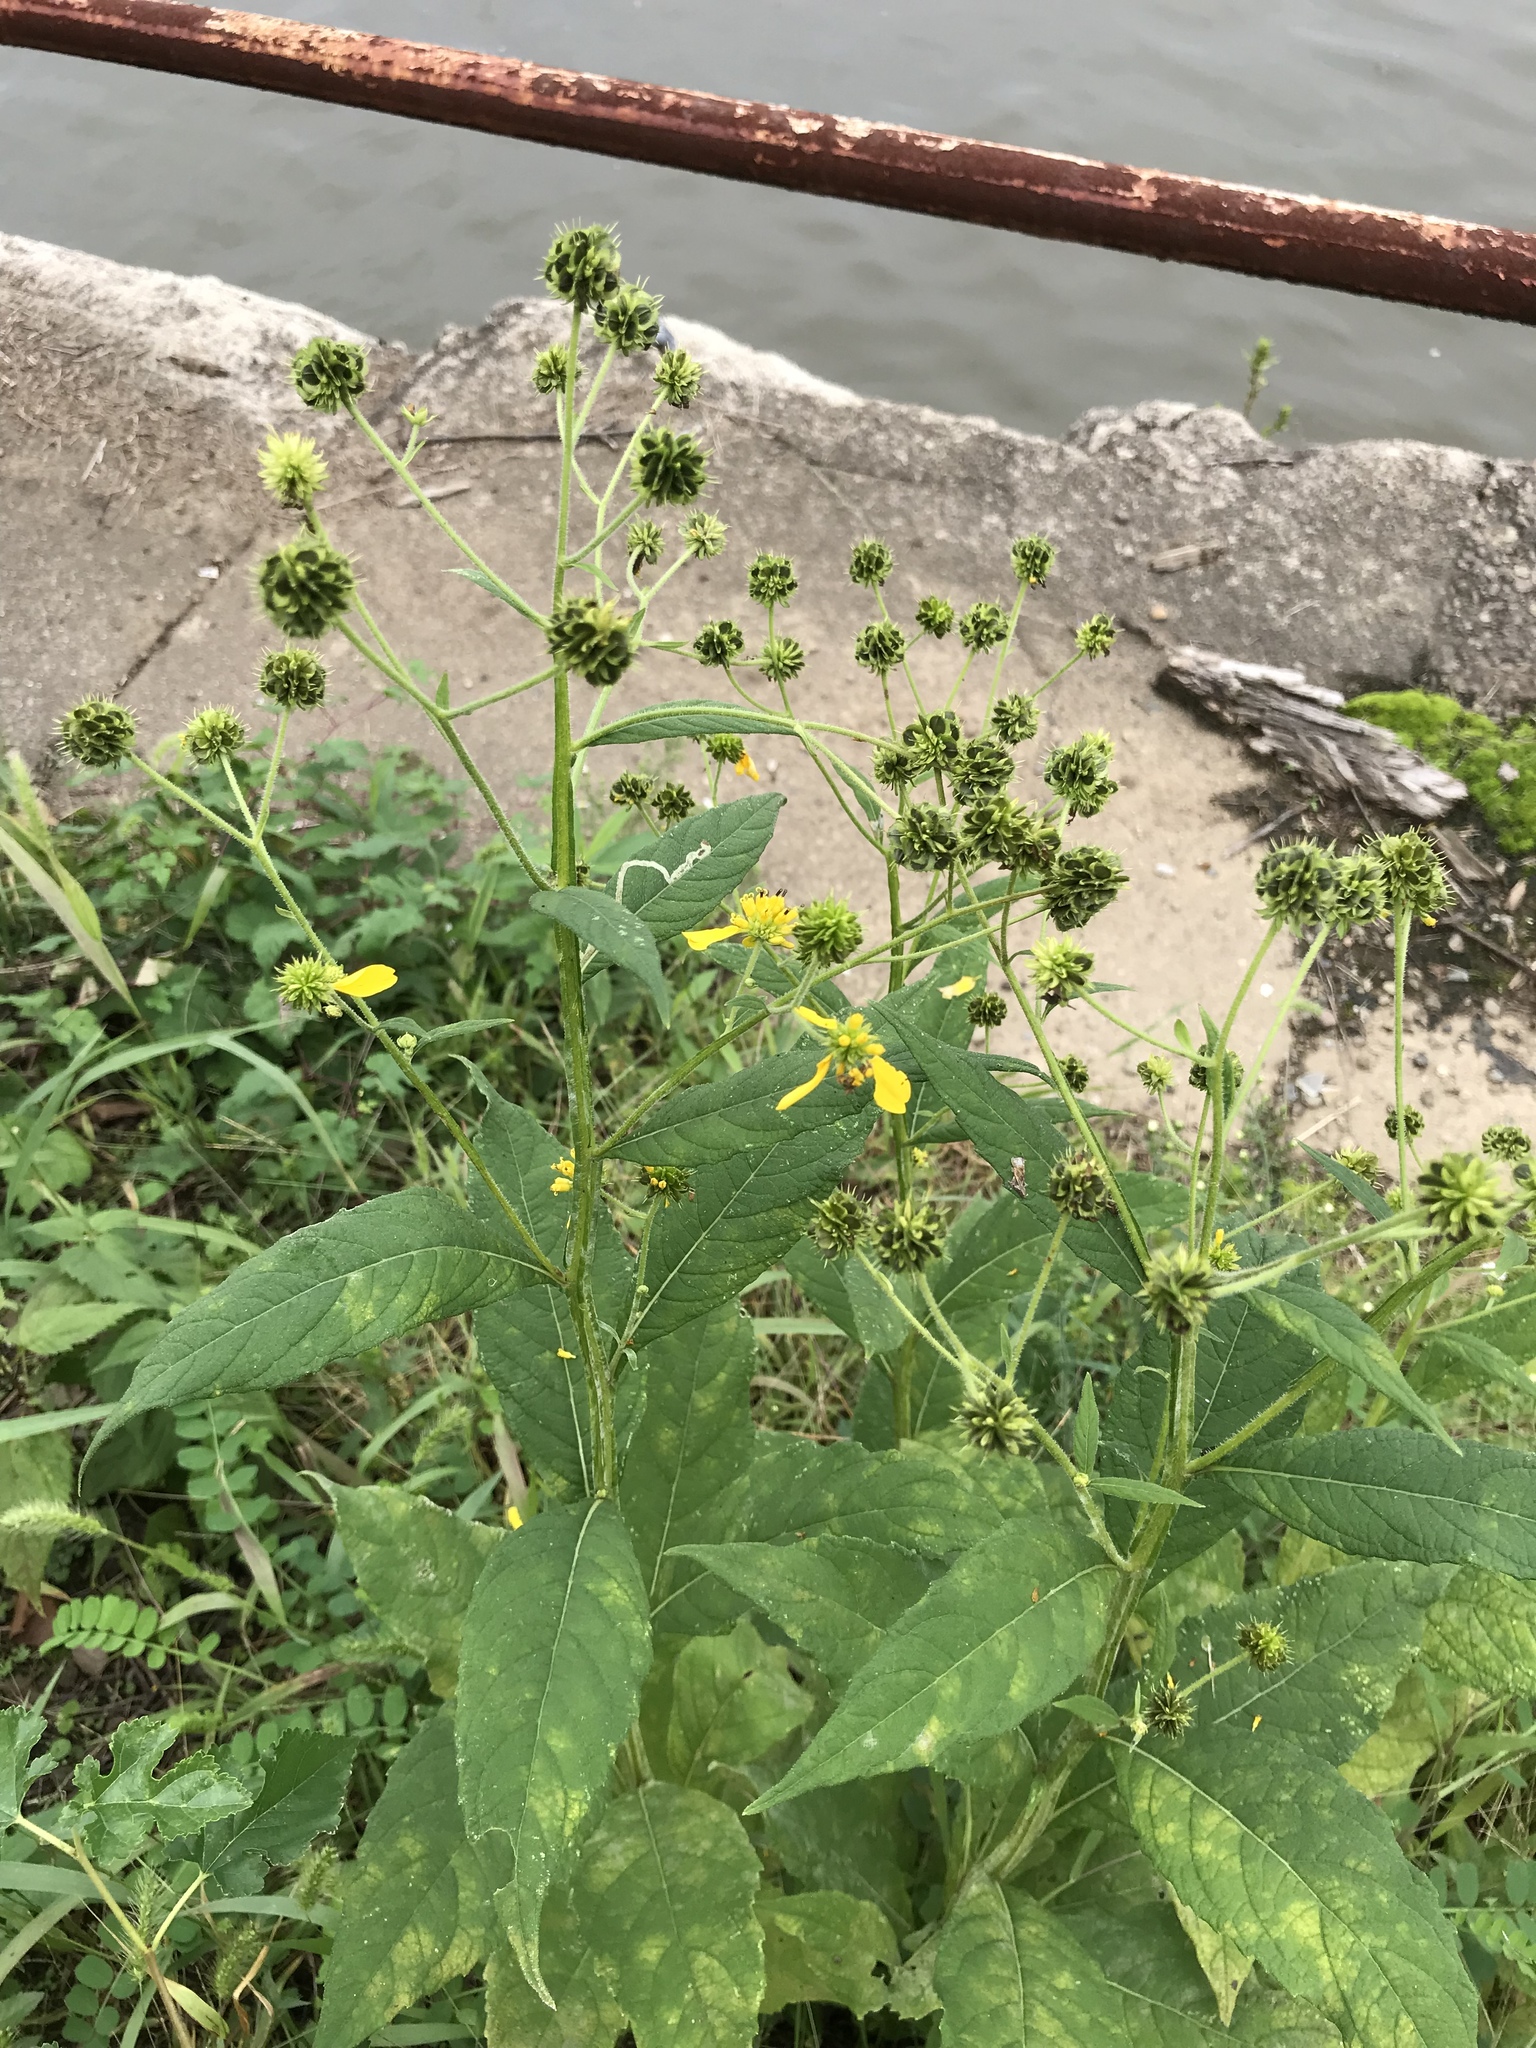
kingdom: Plantae
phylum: Tracheophyta
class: Magnoliopsida
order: Asterales
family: Asteraceae
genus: Verbesina
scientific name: Verbesina alternifolia
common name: Wingstem
